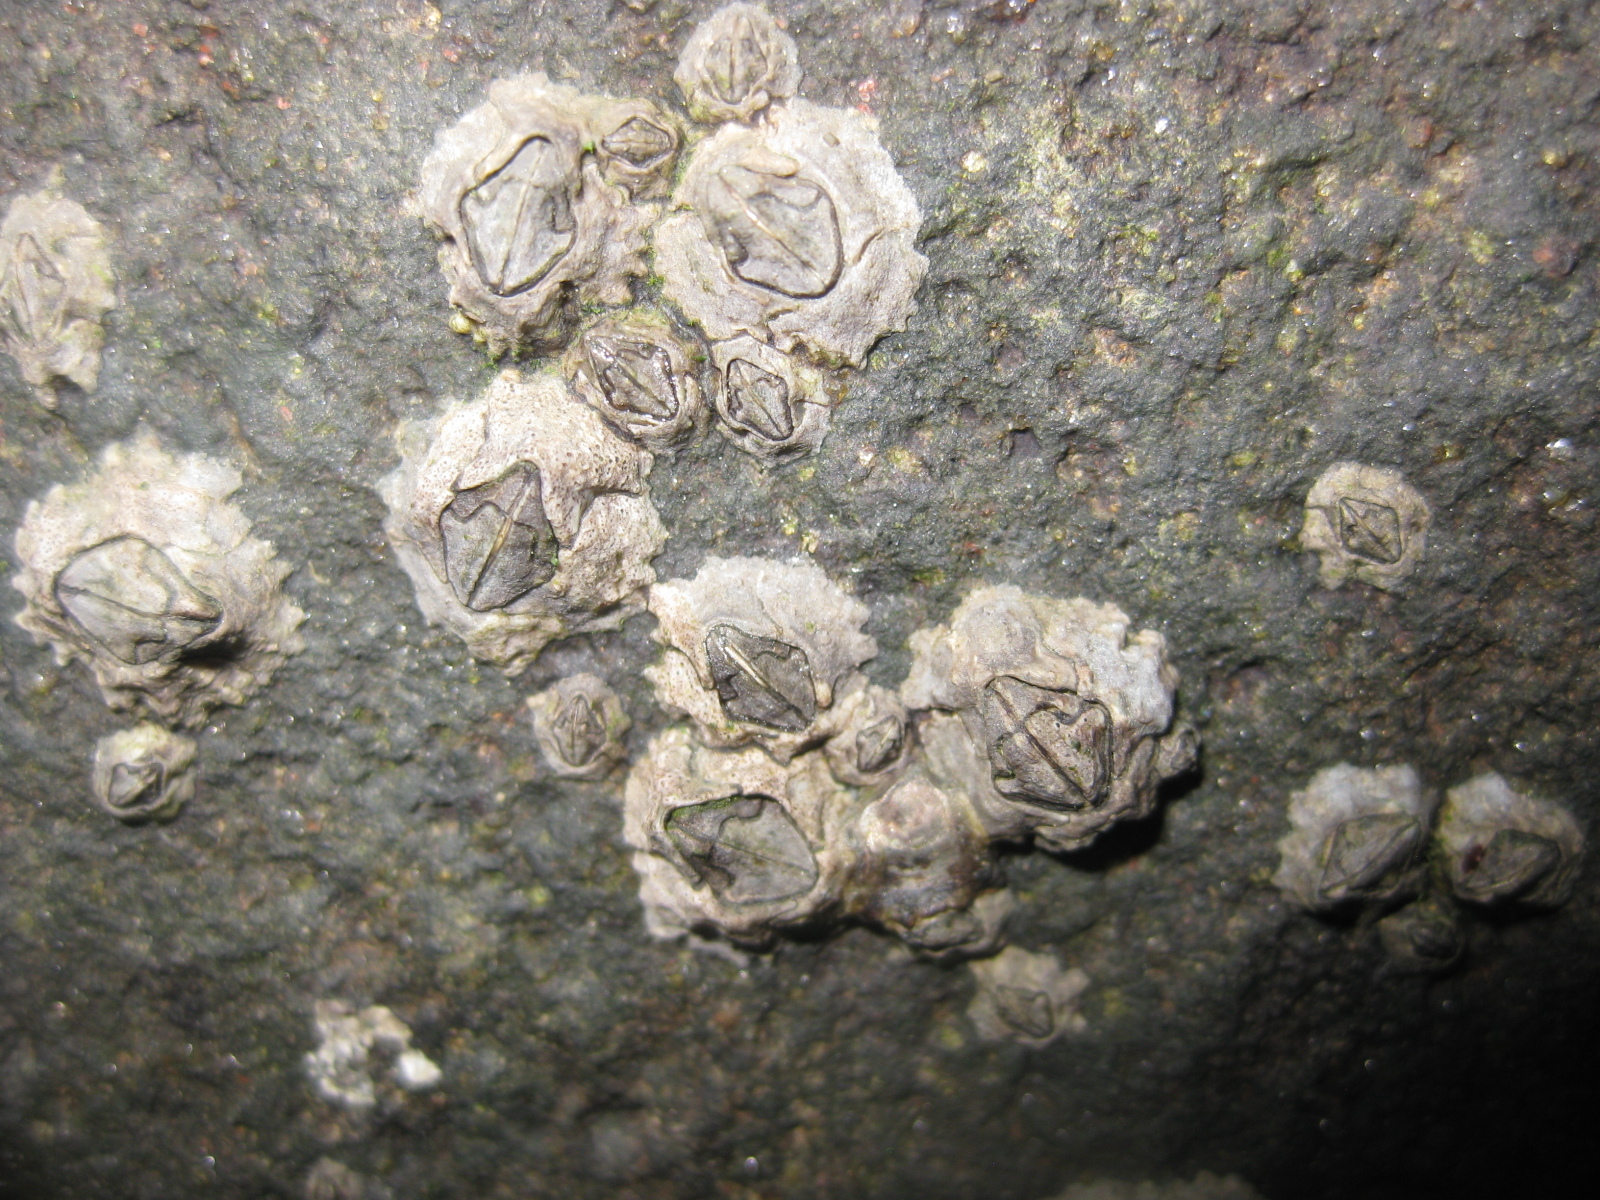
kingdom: Animalia
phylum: Arthropoda
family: Elminiidae
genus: Austrominius
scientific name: Austrominius modestus
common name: Australasian barnacle
